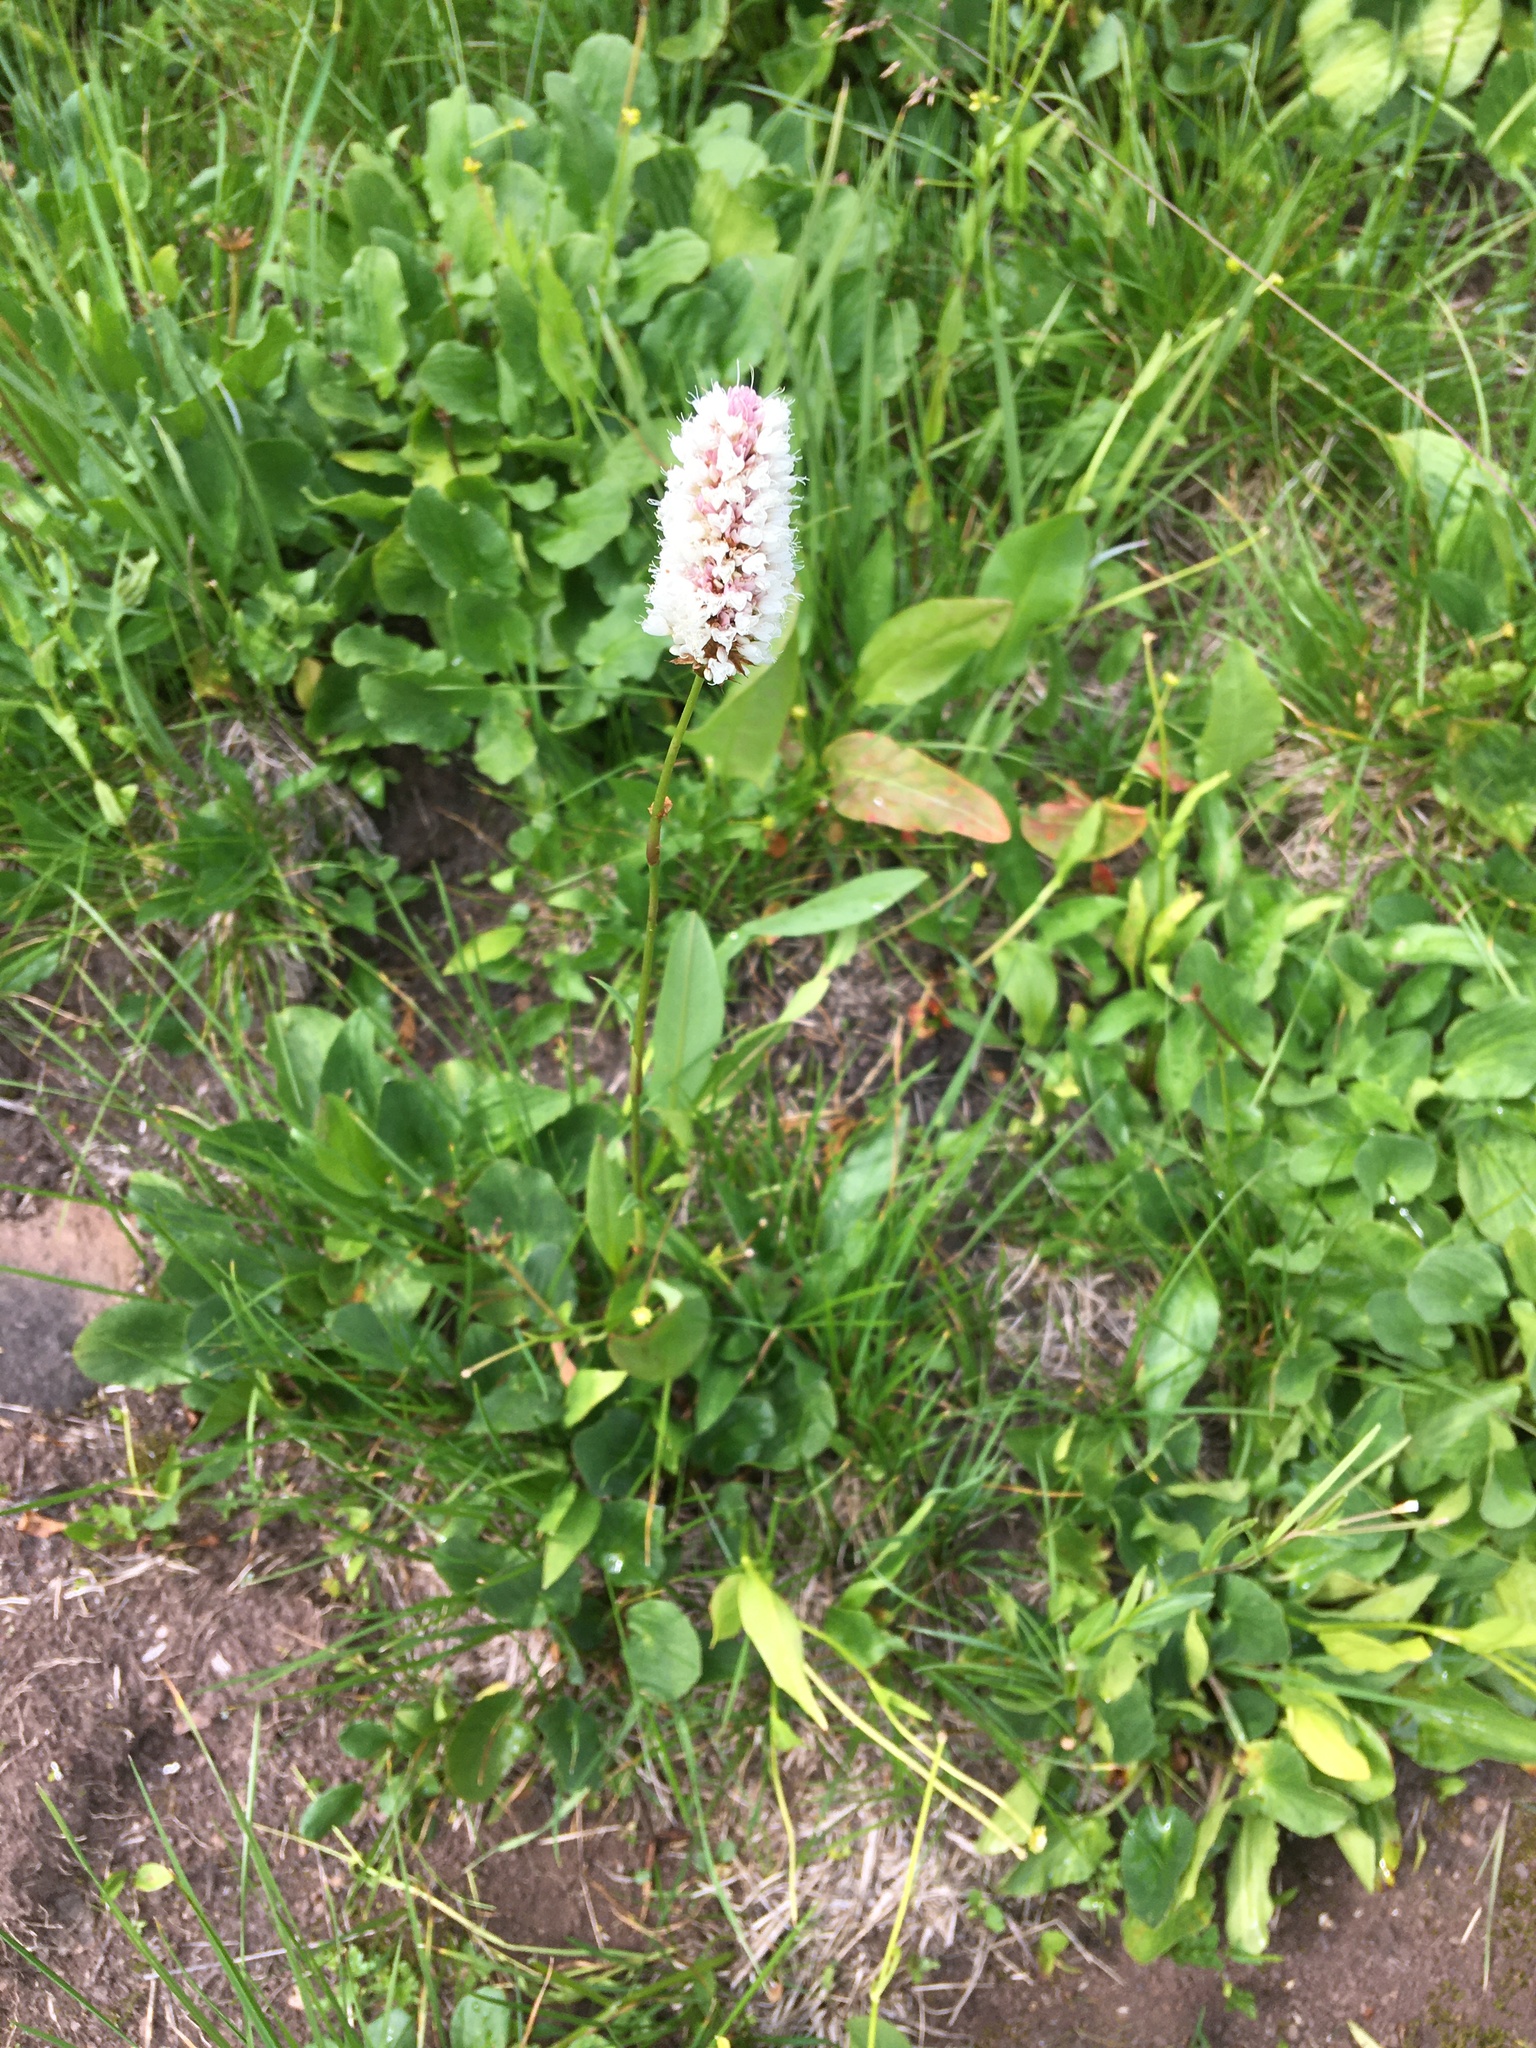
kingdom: Plantae
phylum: Tracheophyta
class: Magnoliopsida
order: Caryophyllales
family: Polygonaceae
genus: Bistorta
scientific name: Bistorta bistortoides
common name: American bistort
